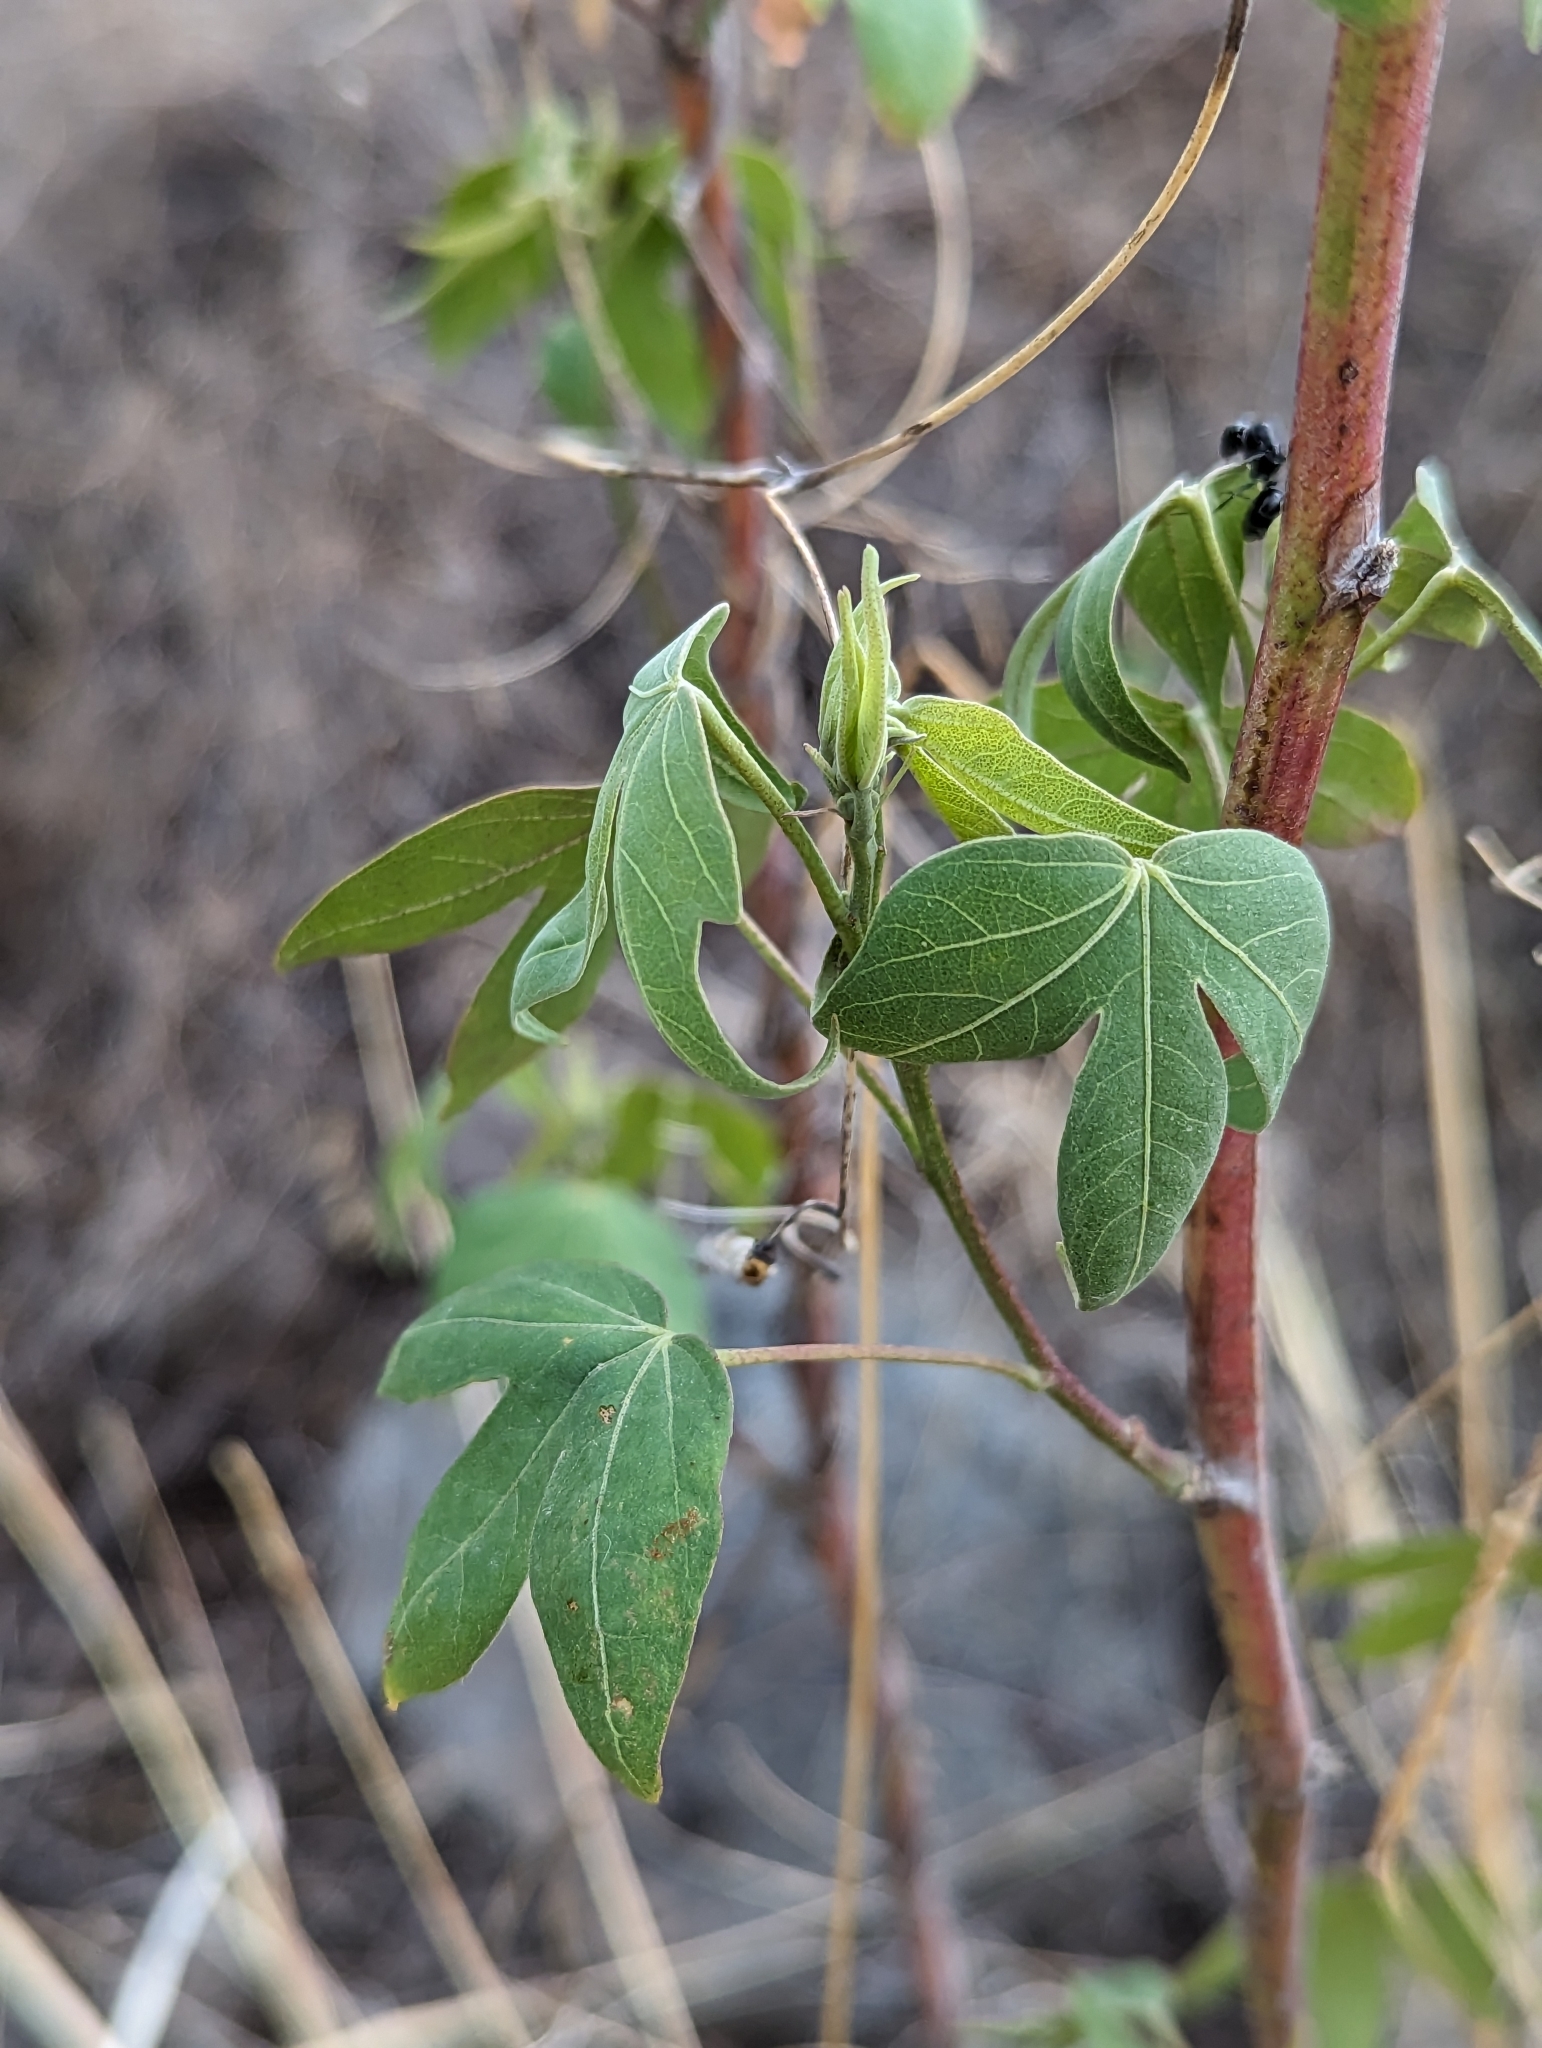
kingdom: Plantae
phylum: Tracheophyta
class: Magnoliopsida
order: Malvales
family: Malvaceae
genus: Gossypium
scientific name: Gossypium thurberi
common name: Desert cotton
